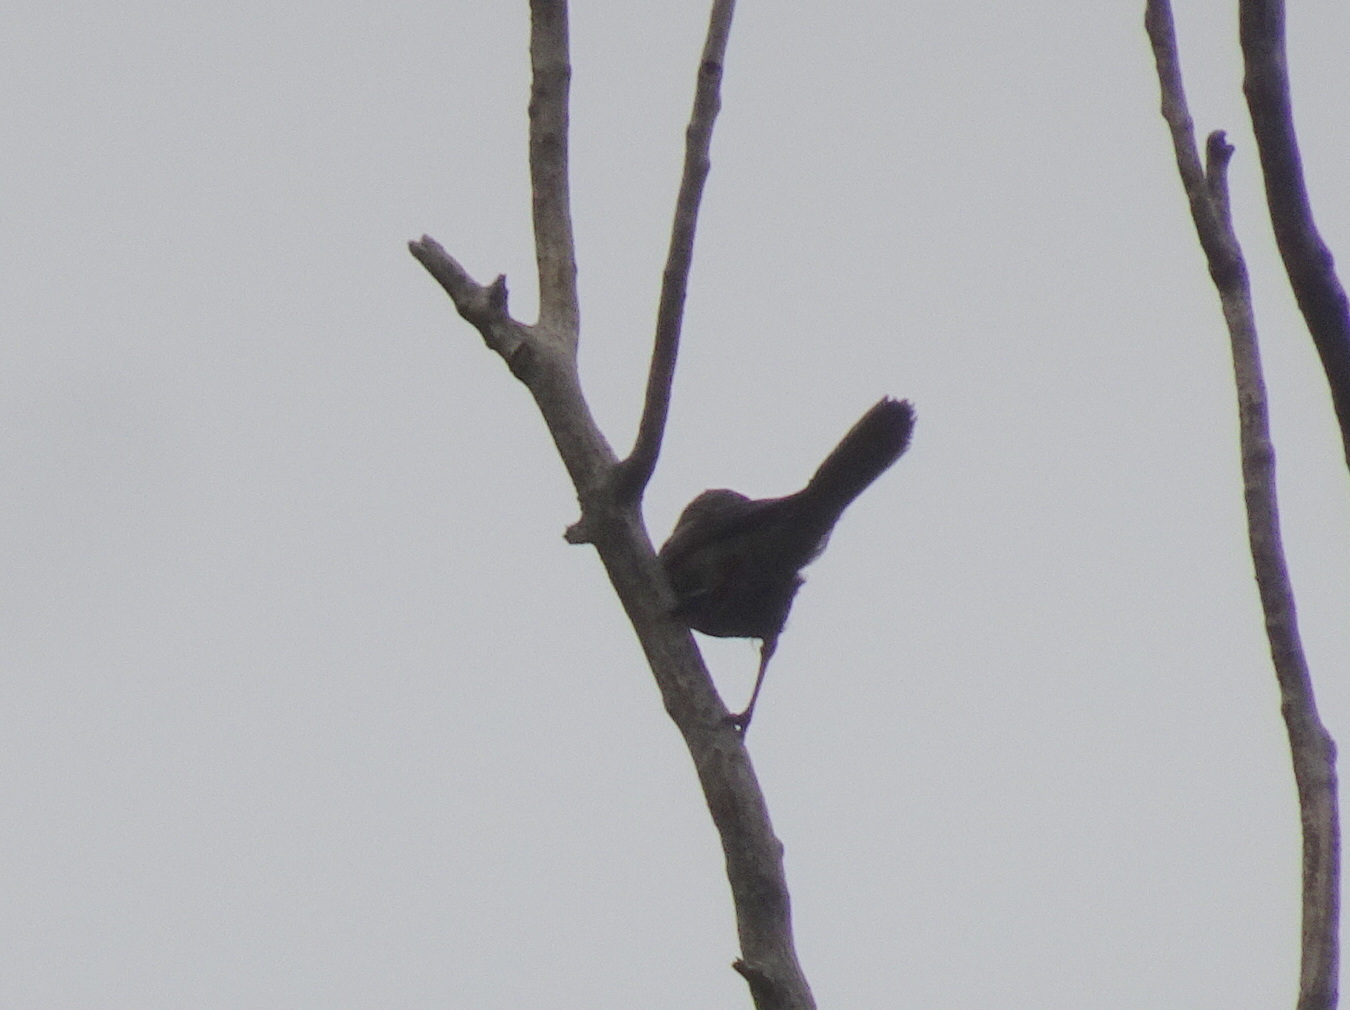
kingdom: Animalia
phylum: Chordata
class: Aves
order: Passeriformes
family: Icteridae
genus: Quiscalus
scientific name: Quiscalus quiscula
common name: Common grackle
